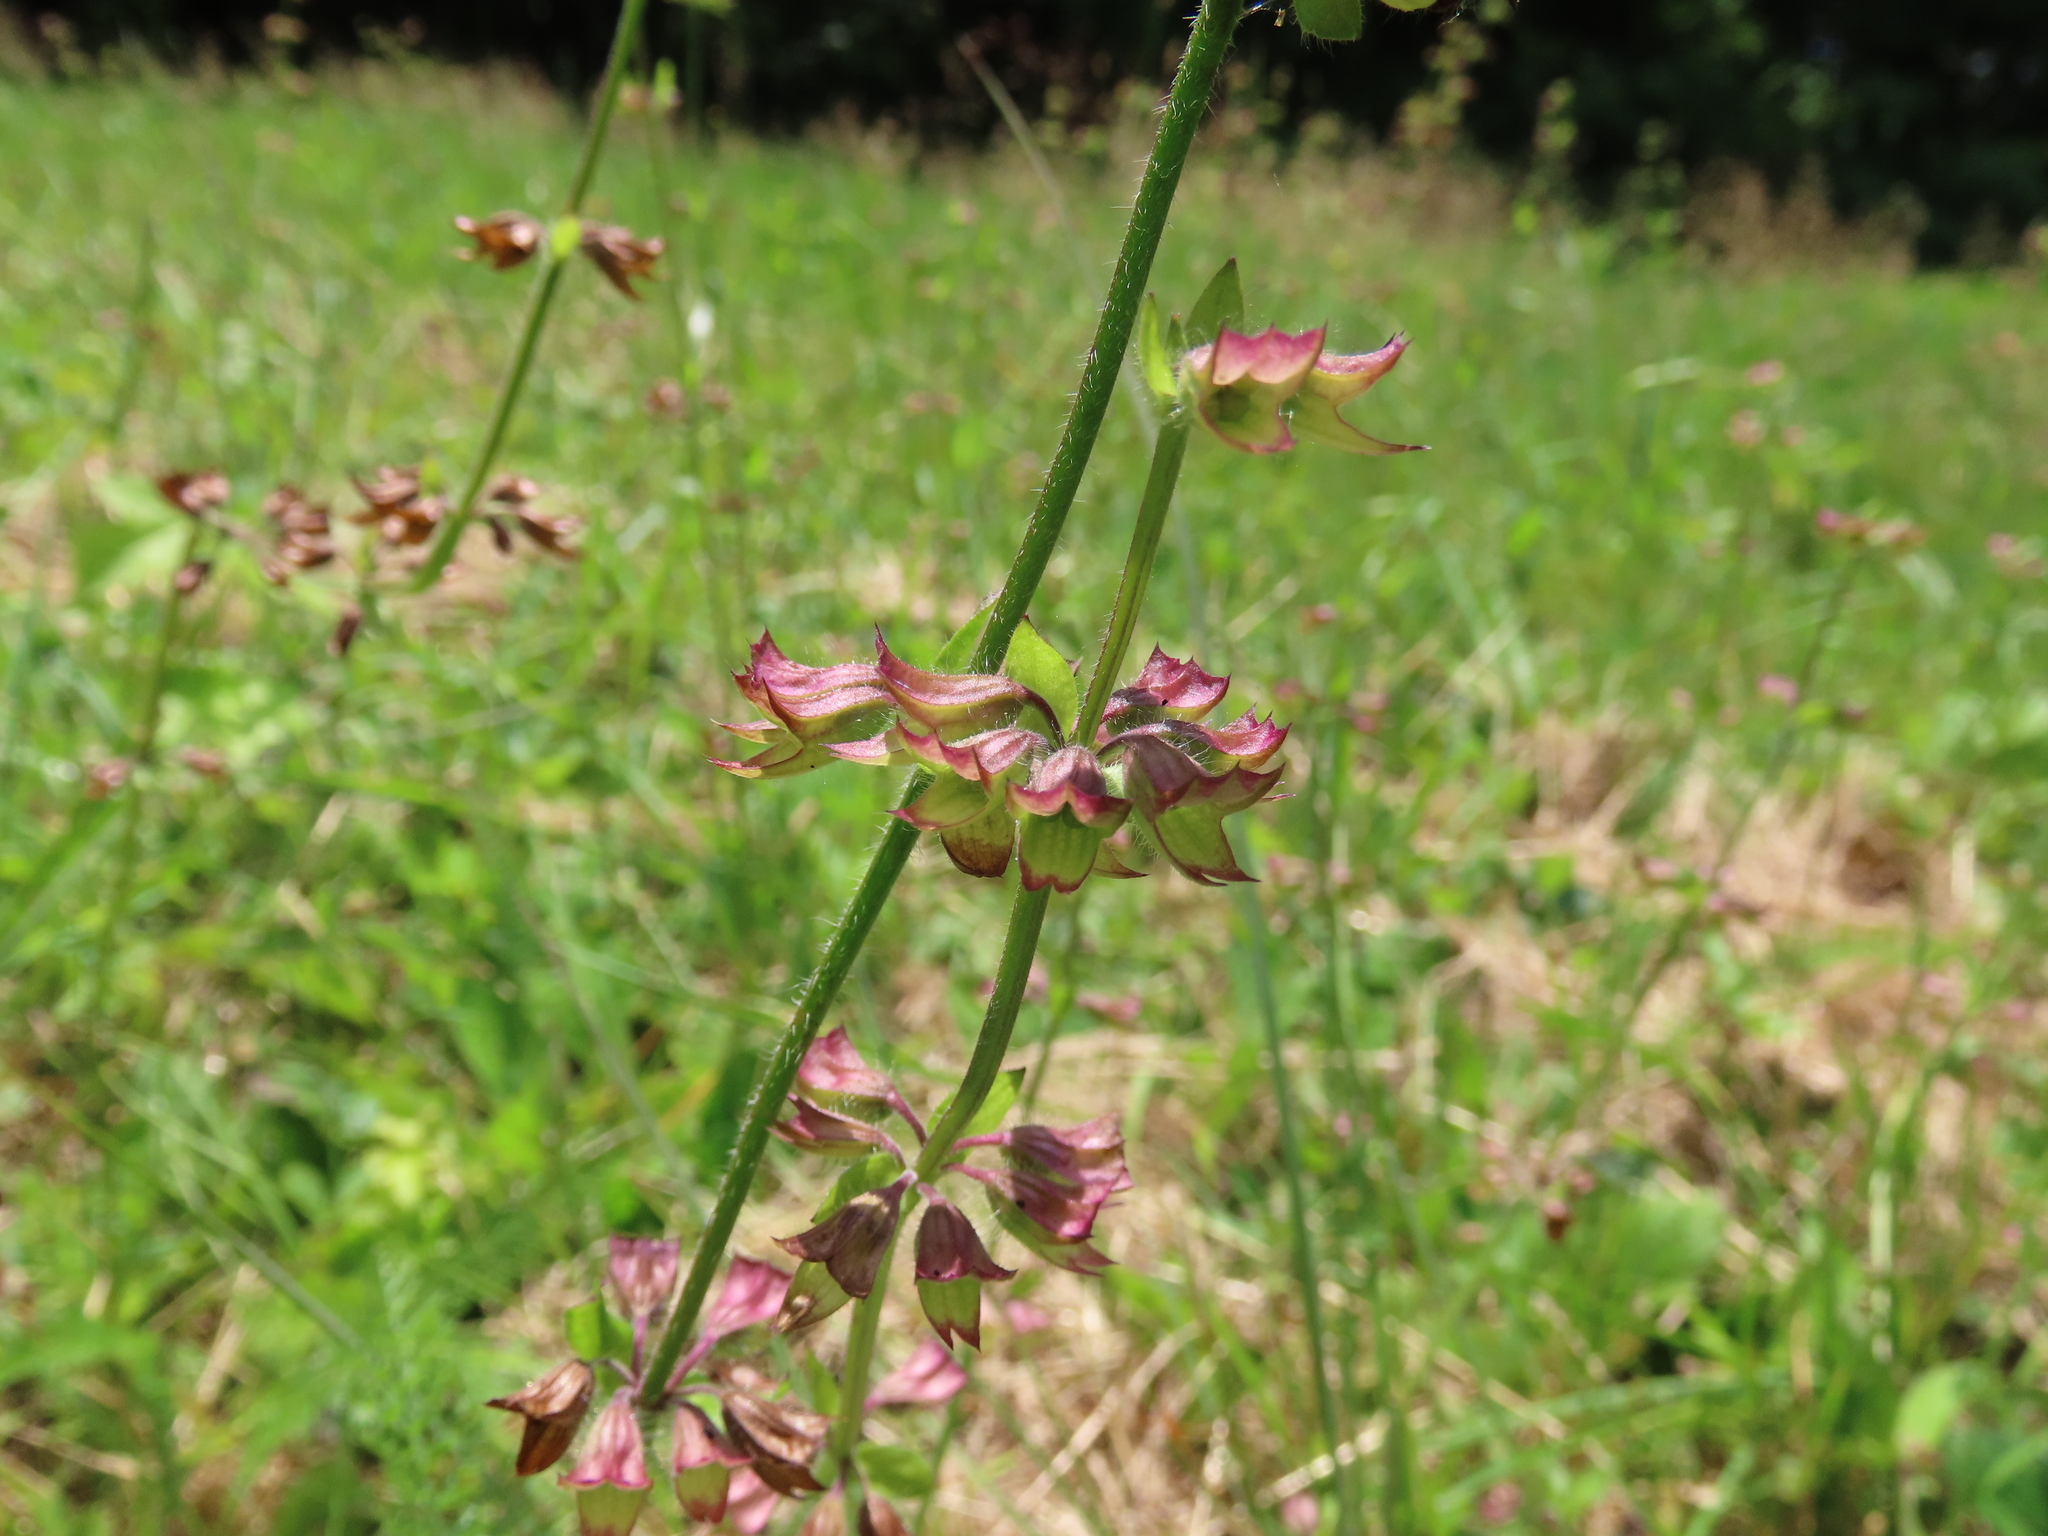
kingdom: Plantae
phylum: Tracheophyta
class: Magnoliopsida
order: Lamiales
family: Lamiaceae
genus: Salvia
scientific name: Salvia lyrata
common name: Cancerweed
